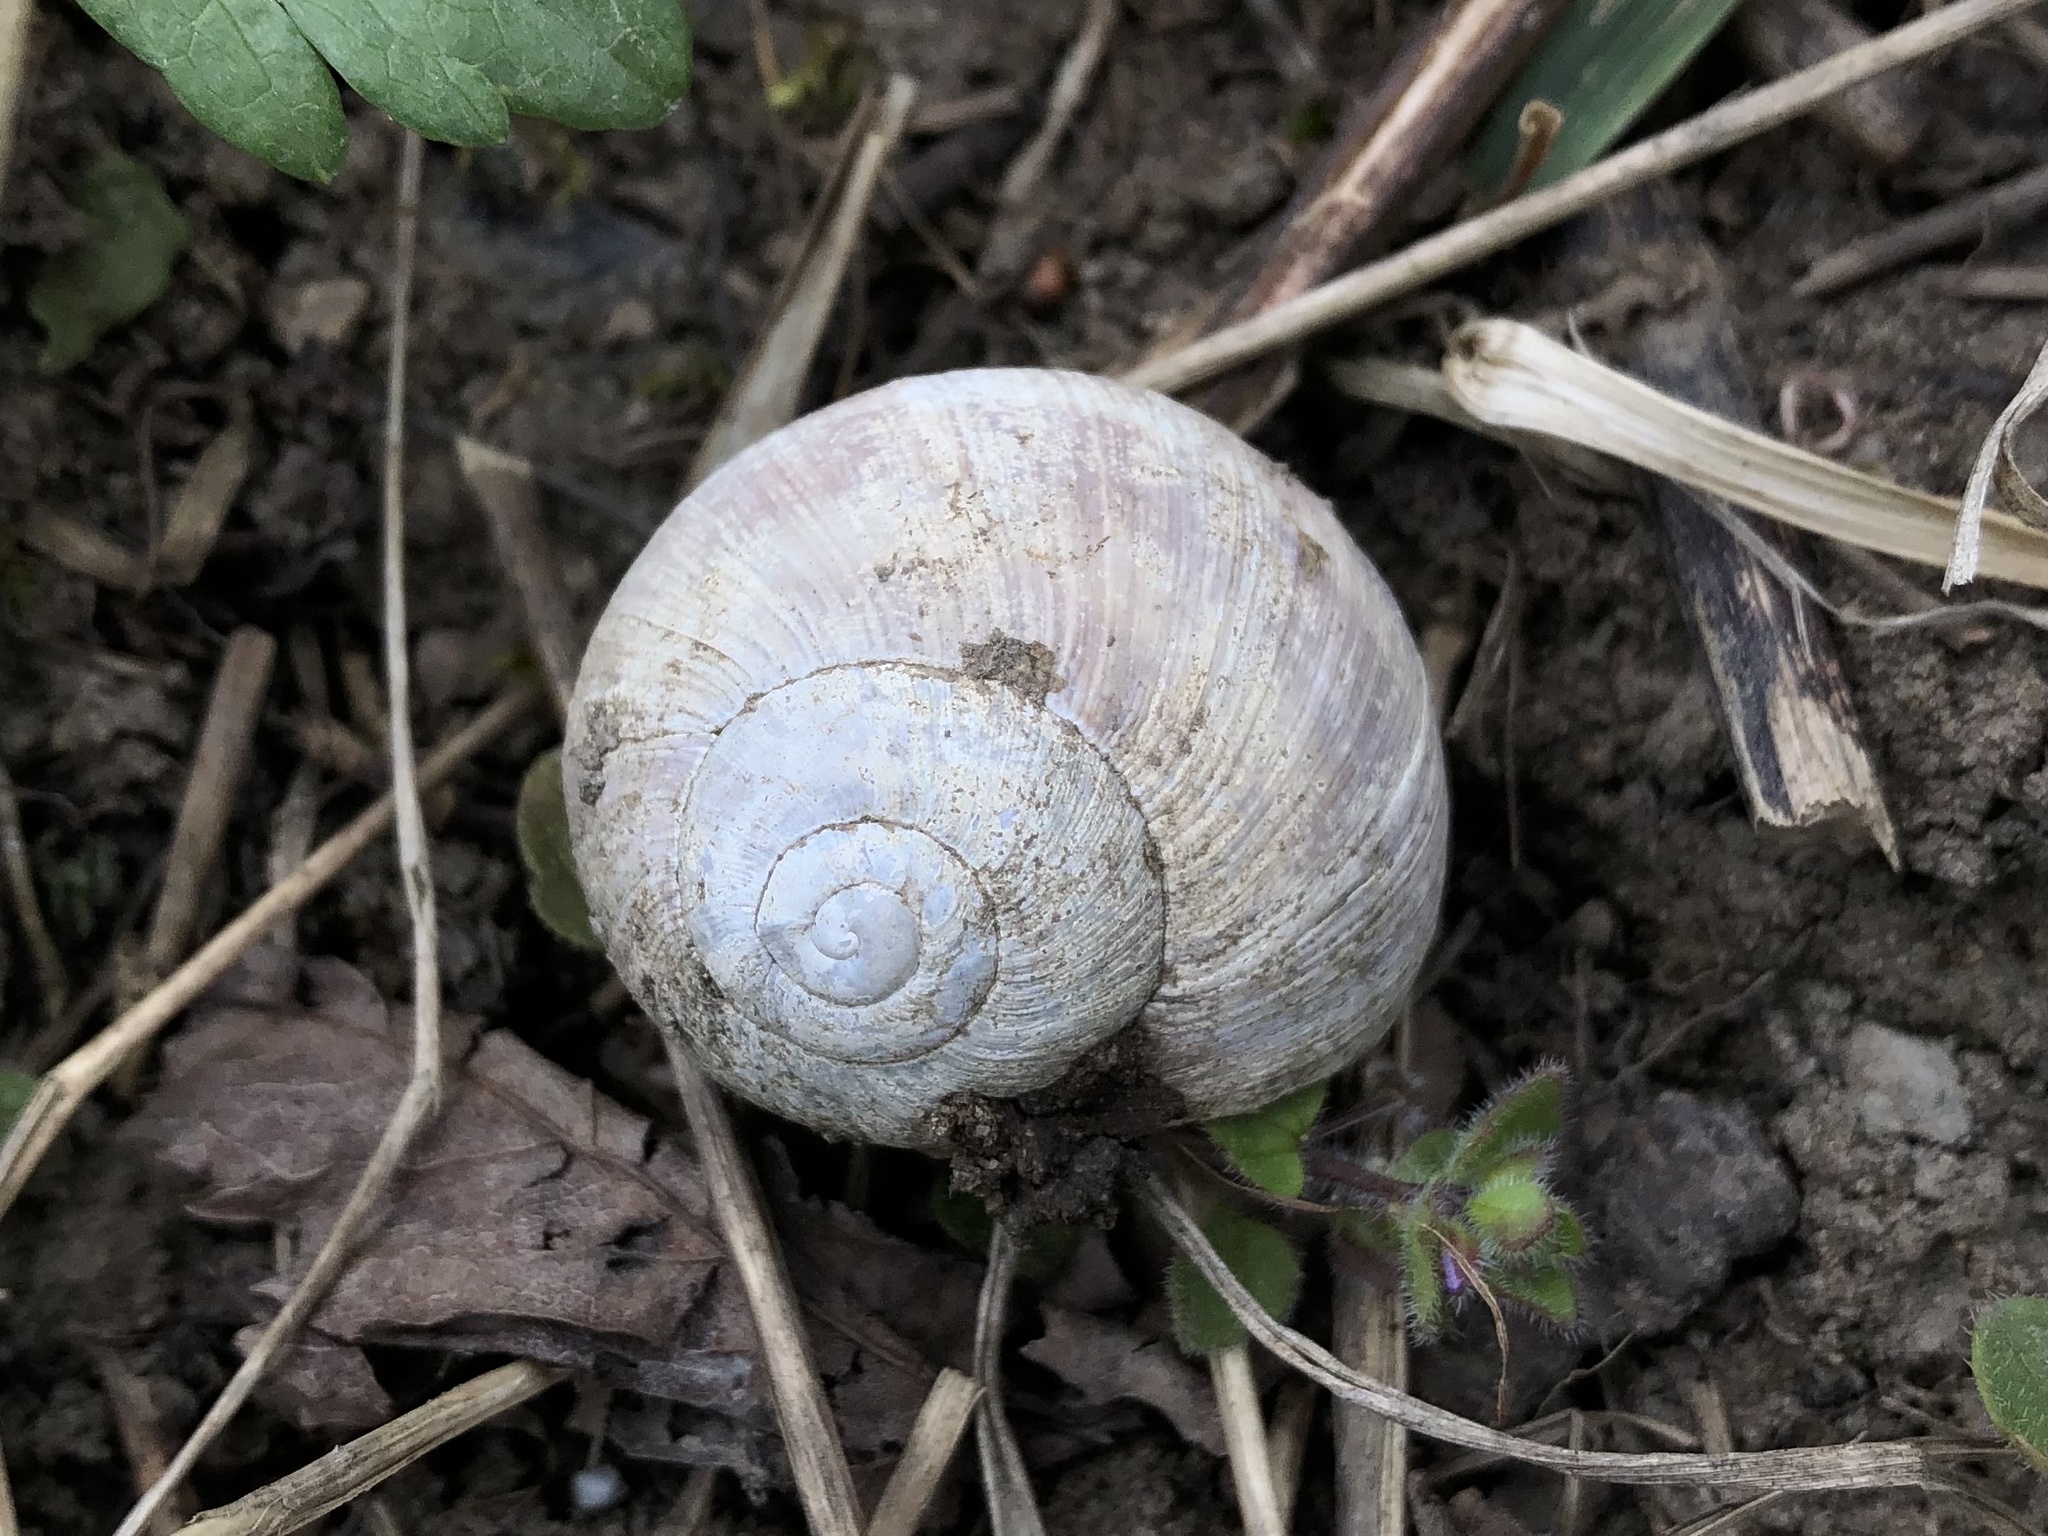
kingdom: Animalia
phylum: Mollusca
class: Gastropoda
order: Stylommatophora
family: Helicidae
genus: Helix
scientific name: Helix pomatia
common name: Roman snail
